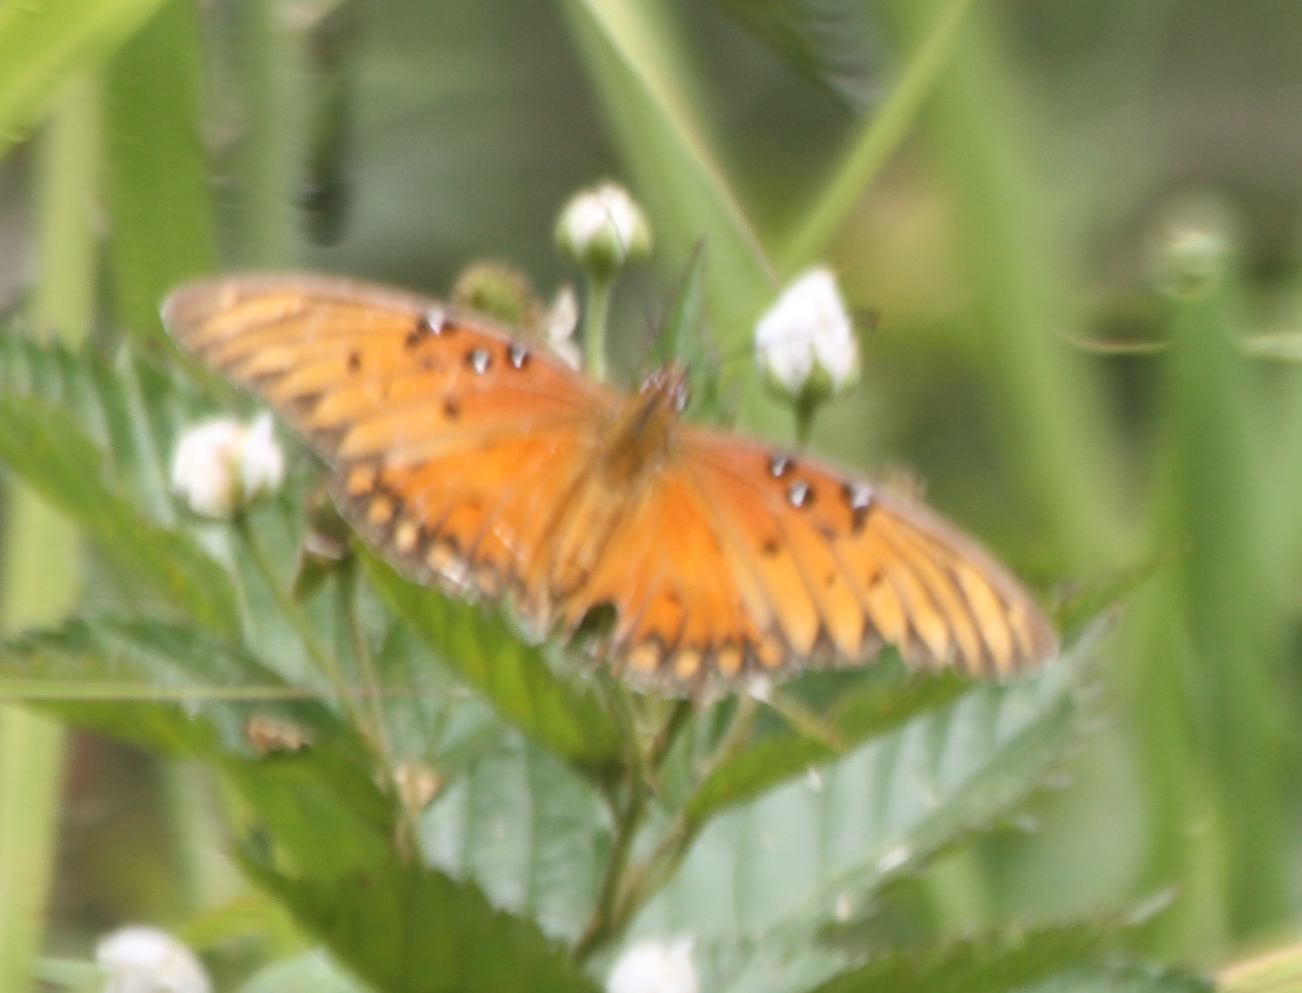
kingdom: Animalia
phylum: Arthropoda
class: Insecta
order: Lepidoptera
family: Nymphalidae
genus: Dione
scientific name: Dione vanillae
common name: Gulf fritillary
